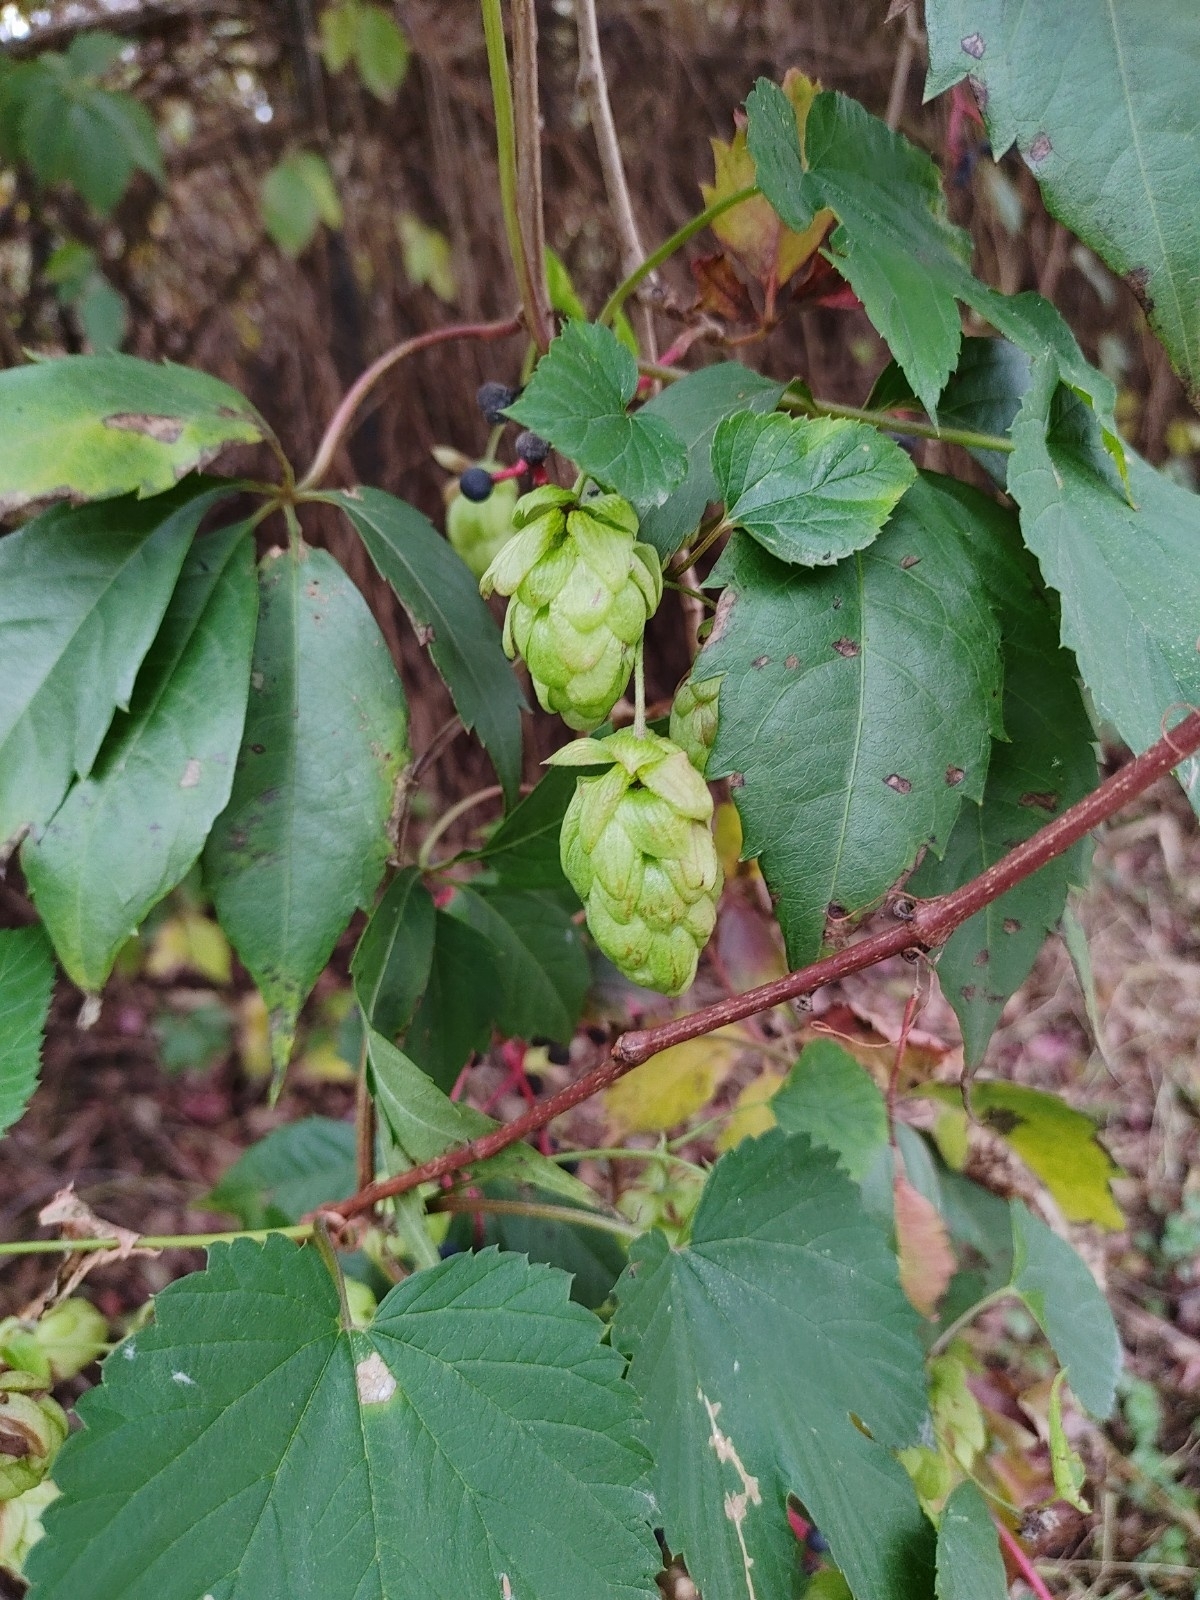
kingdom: Plantae
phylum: Tracheophyta
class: Magnoliopsida
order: Rosales
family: Cannabaceae
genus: Humulus
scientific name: Humulus lupulus
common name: Hop
